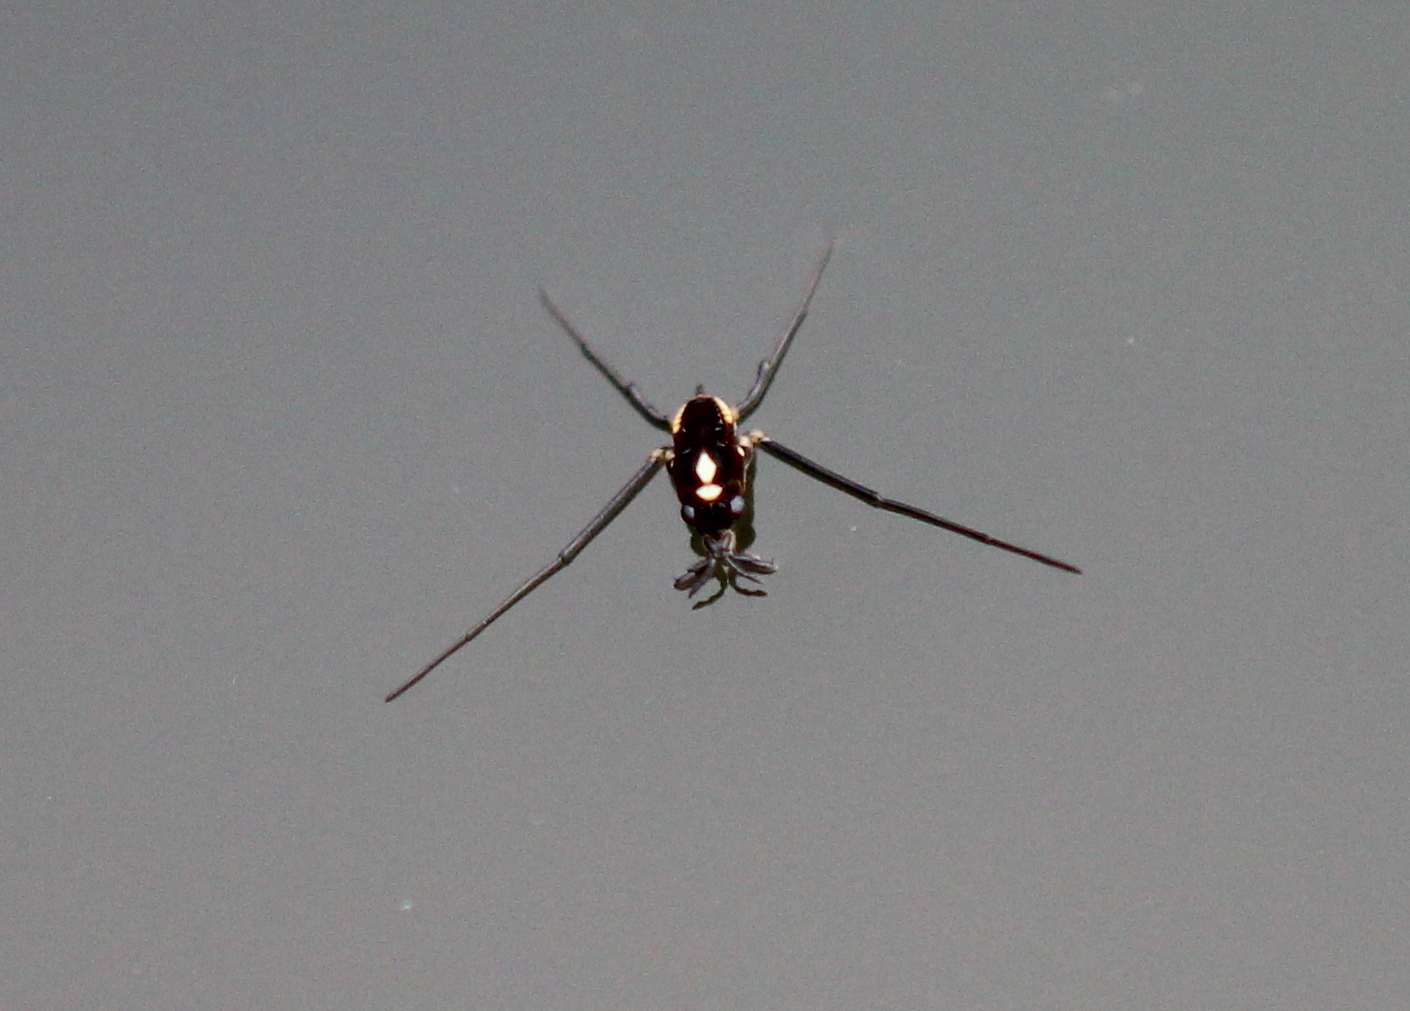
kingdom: Animalia
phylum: Arthropoda
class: Insecta
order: Hemiptera
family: Gerridae
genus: Rheumatobates
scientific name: Rheumatobates
